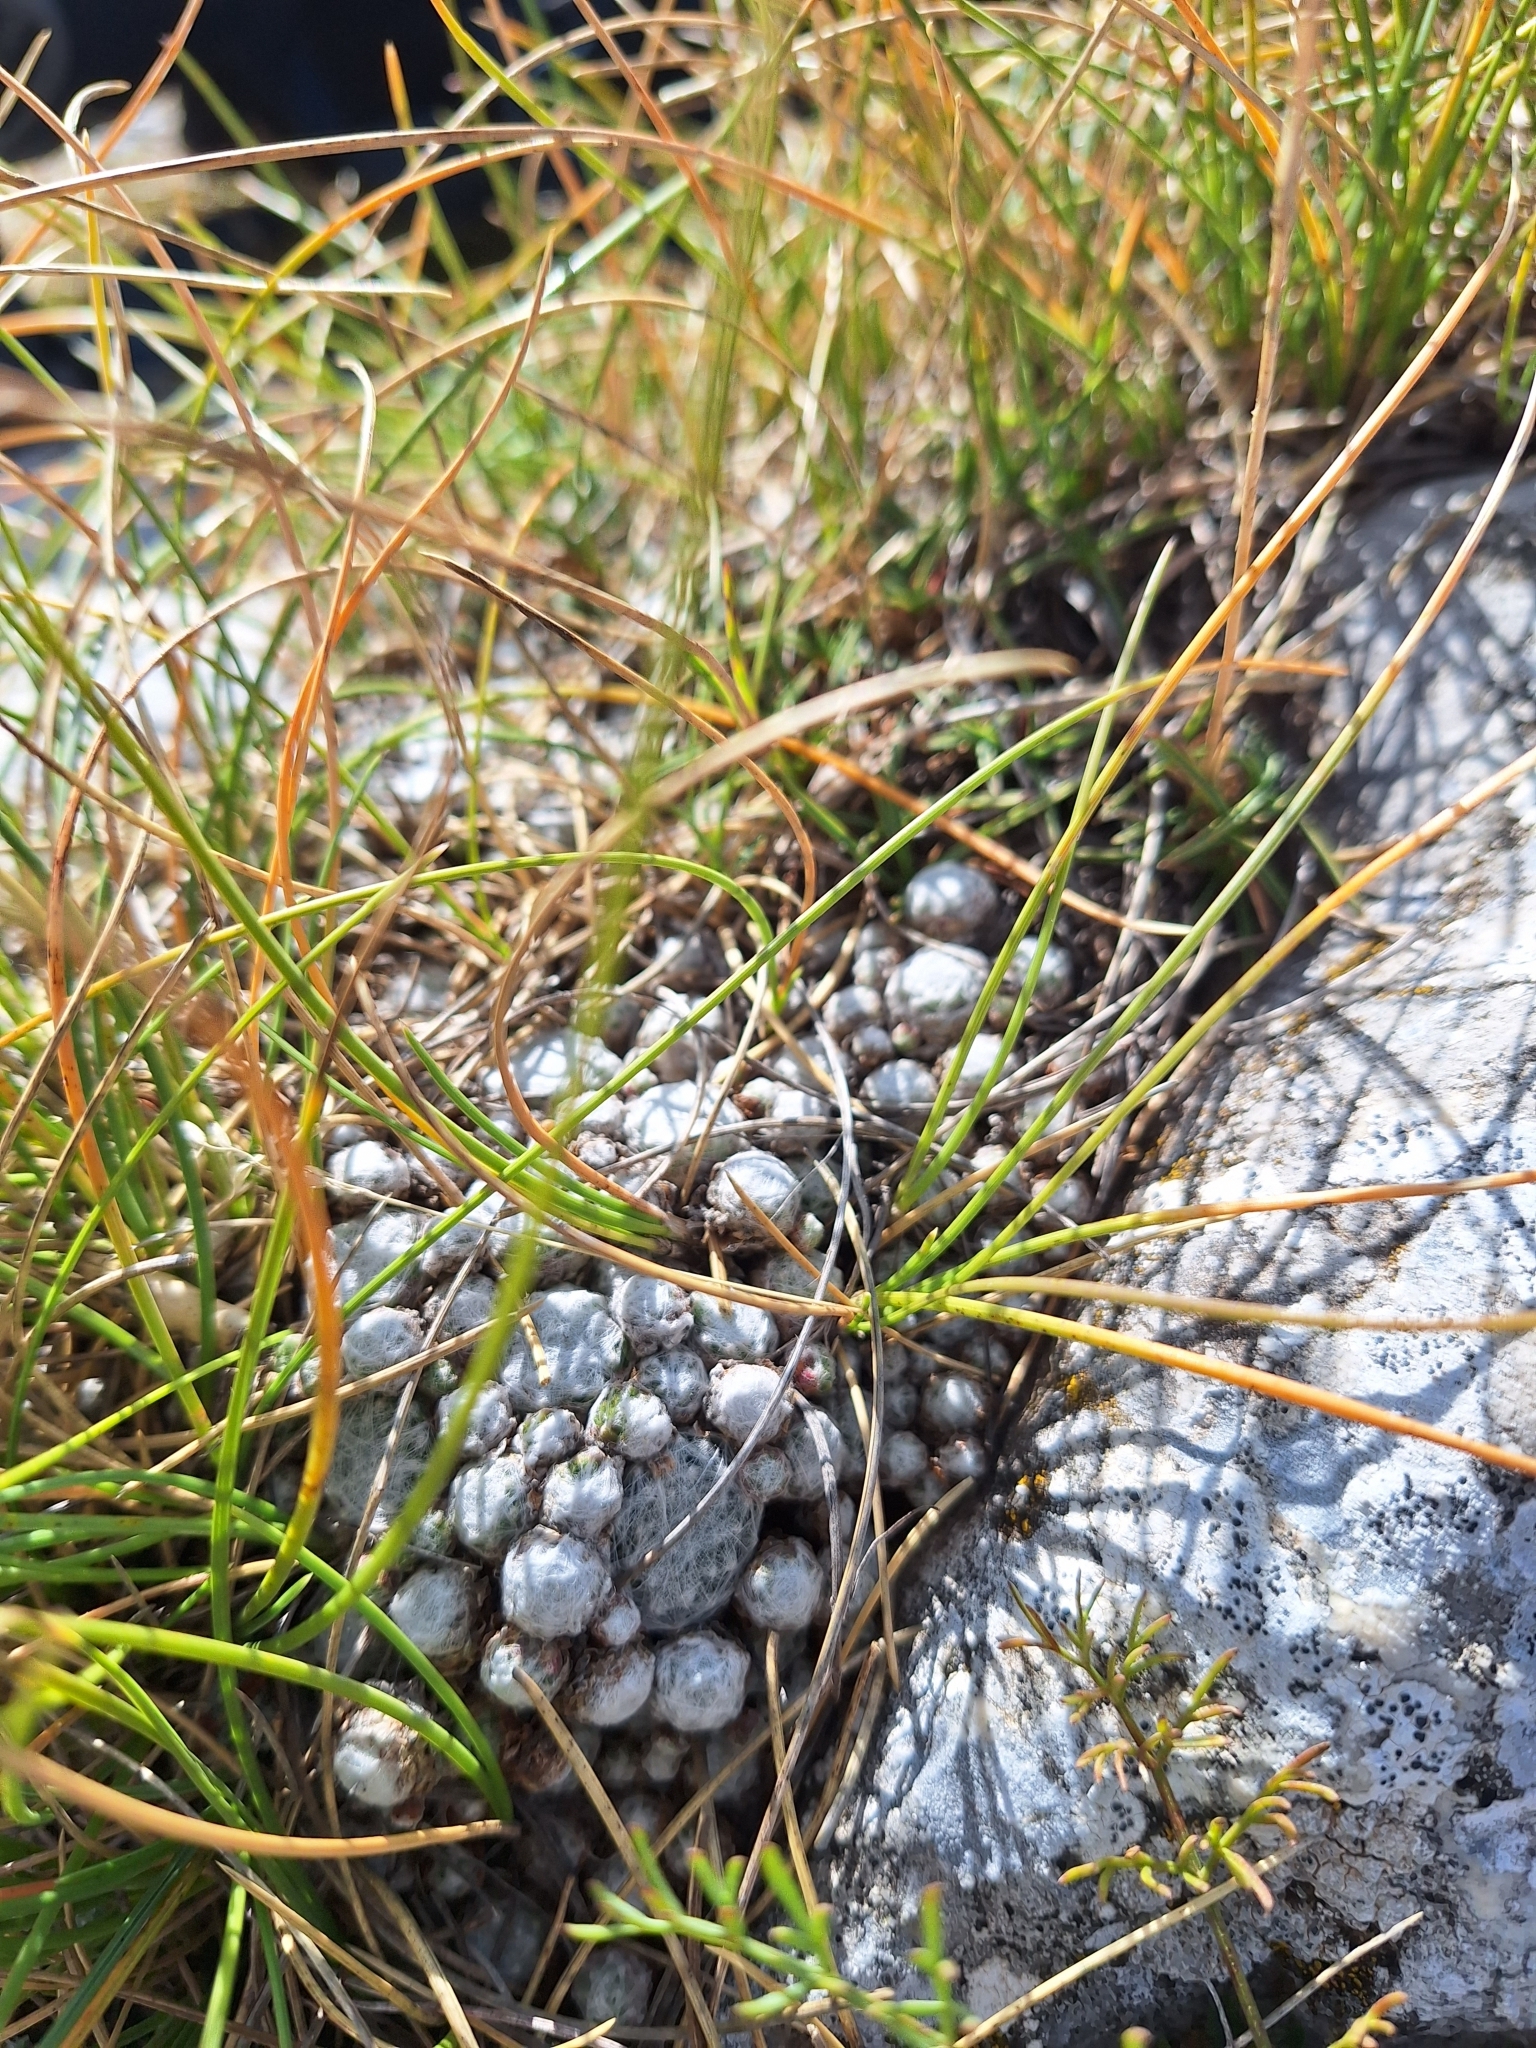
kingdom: Plantae
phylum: Tracheophyta
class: Magnoliopsida
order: Saxifragales
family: Crassulaceae
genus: Sempervivum
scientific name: Sempervivum arachnoideum
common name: Cobweb house-leek
